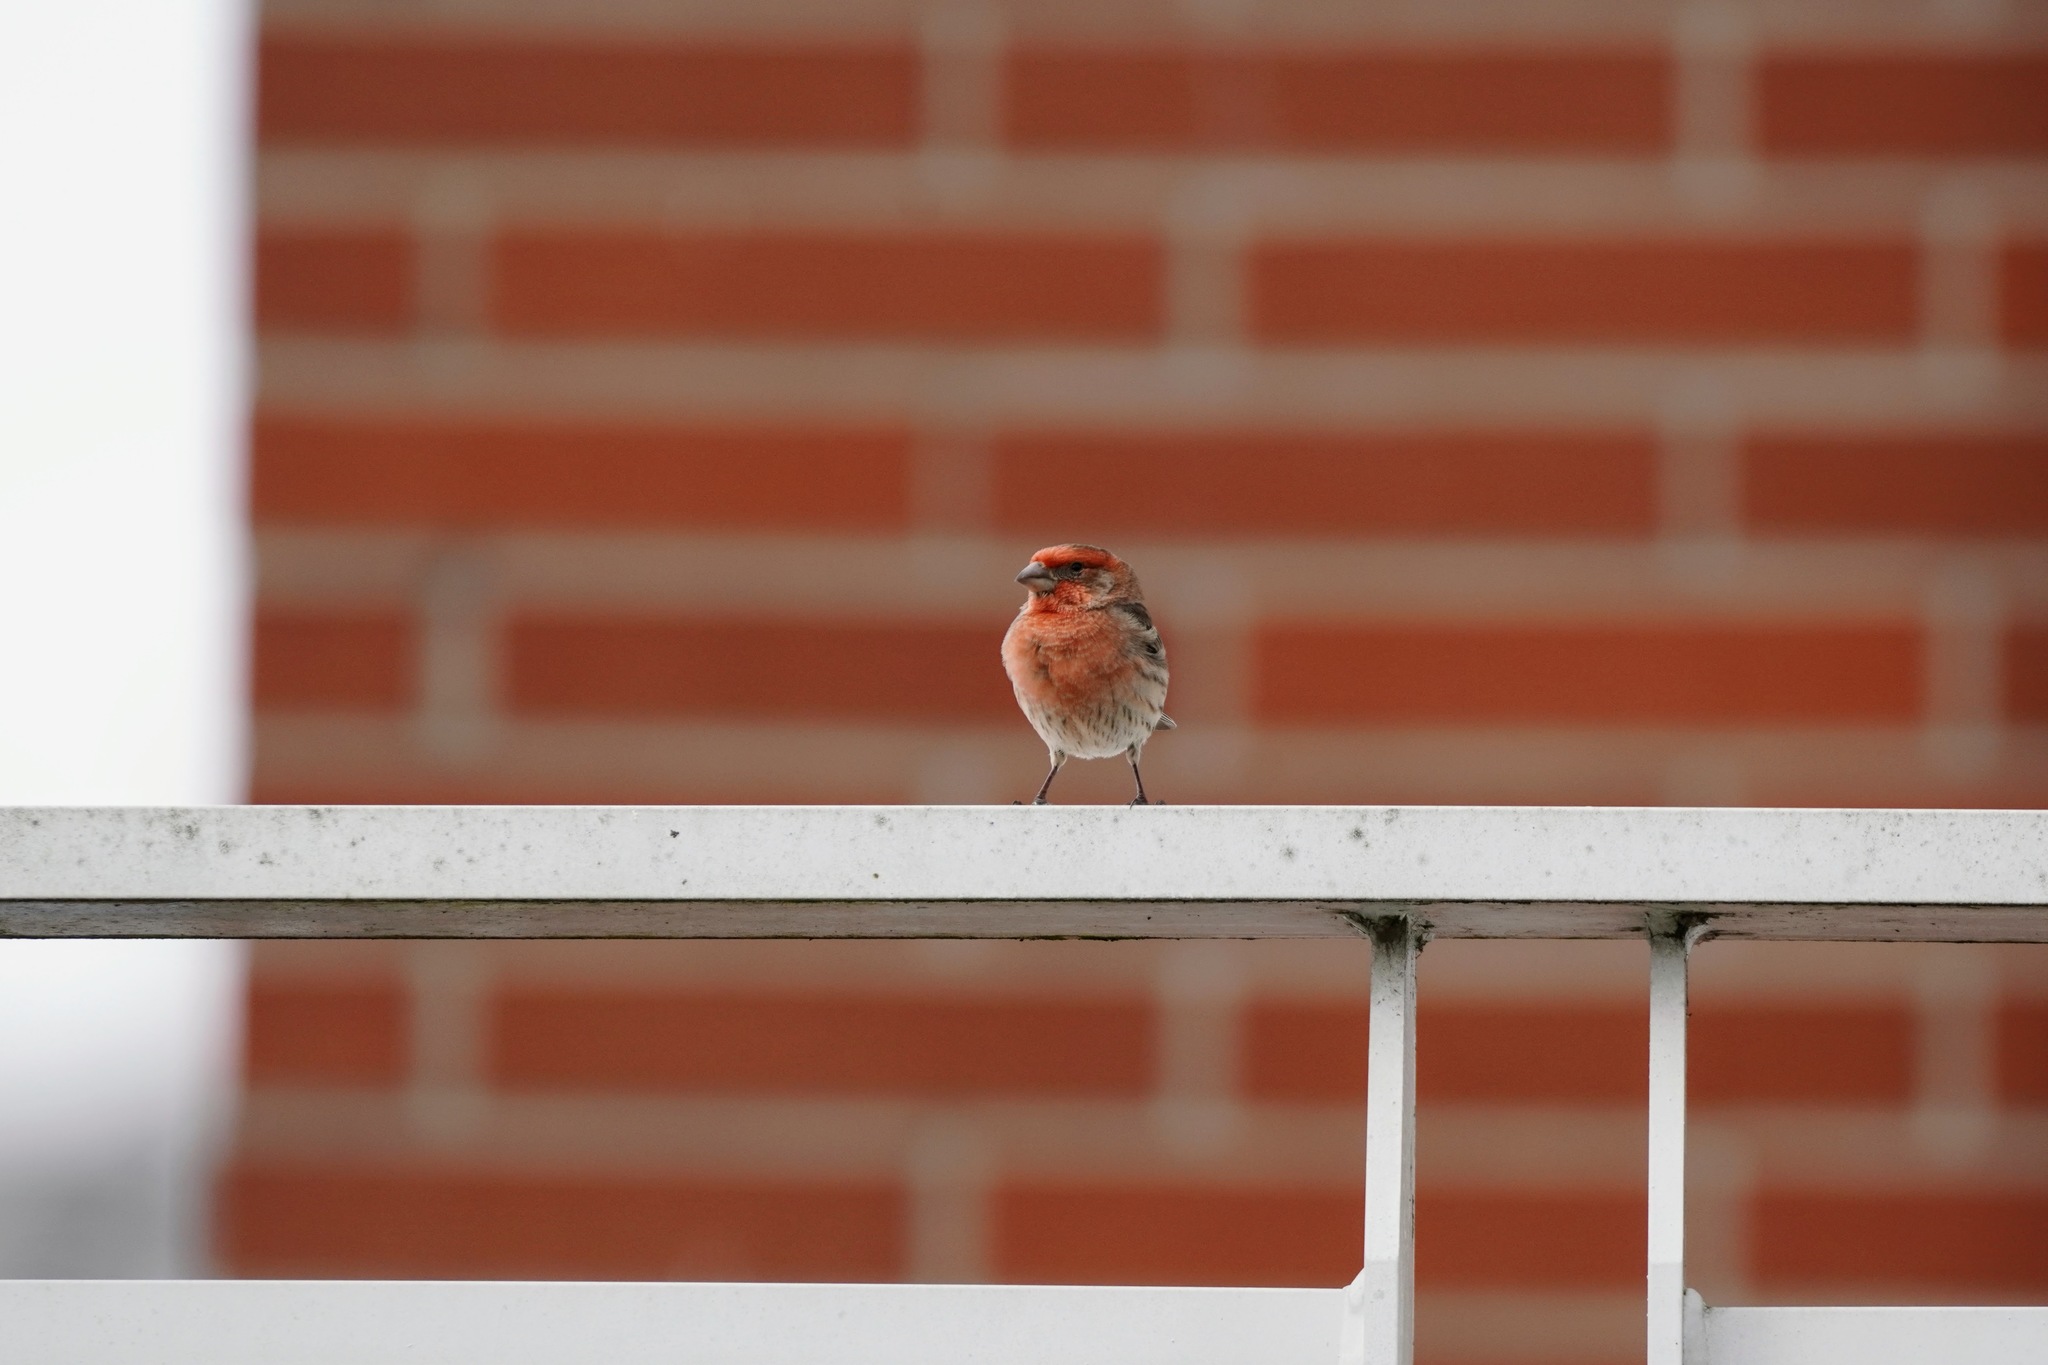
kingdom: Animalia
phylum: Chordata
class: Aves
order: Passeriformes
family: Fringillidae
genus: Haemorhous
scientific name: Haemorhous mexicanus
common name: House finch
